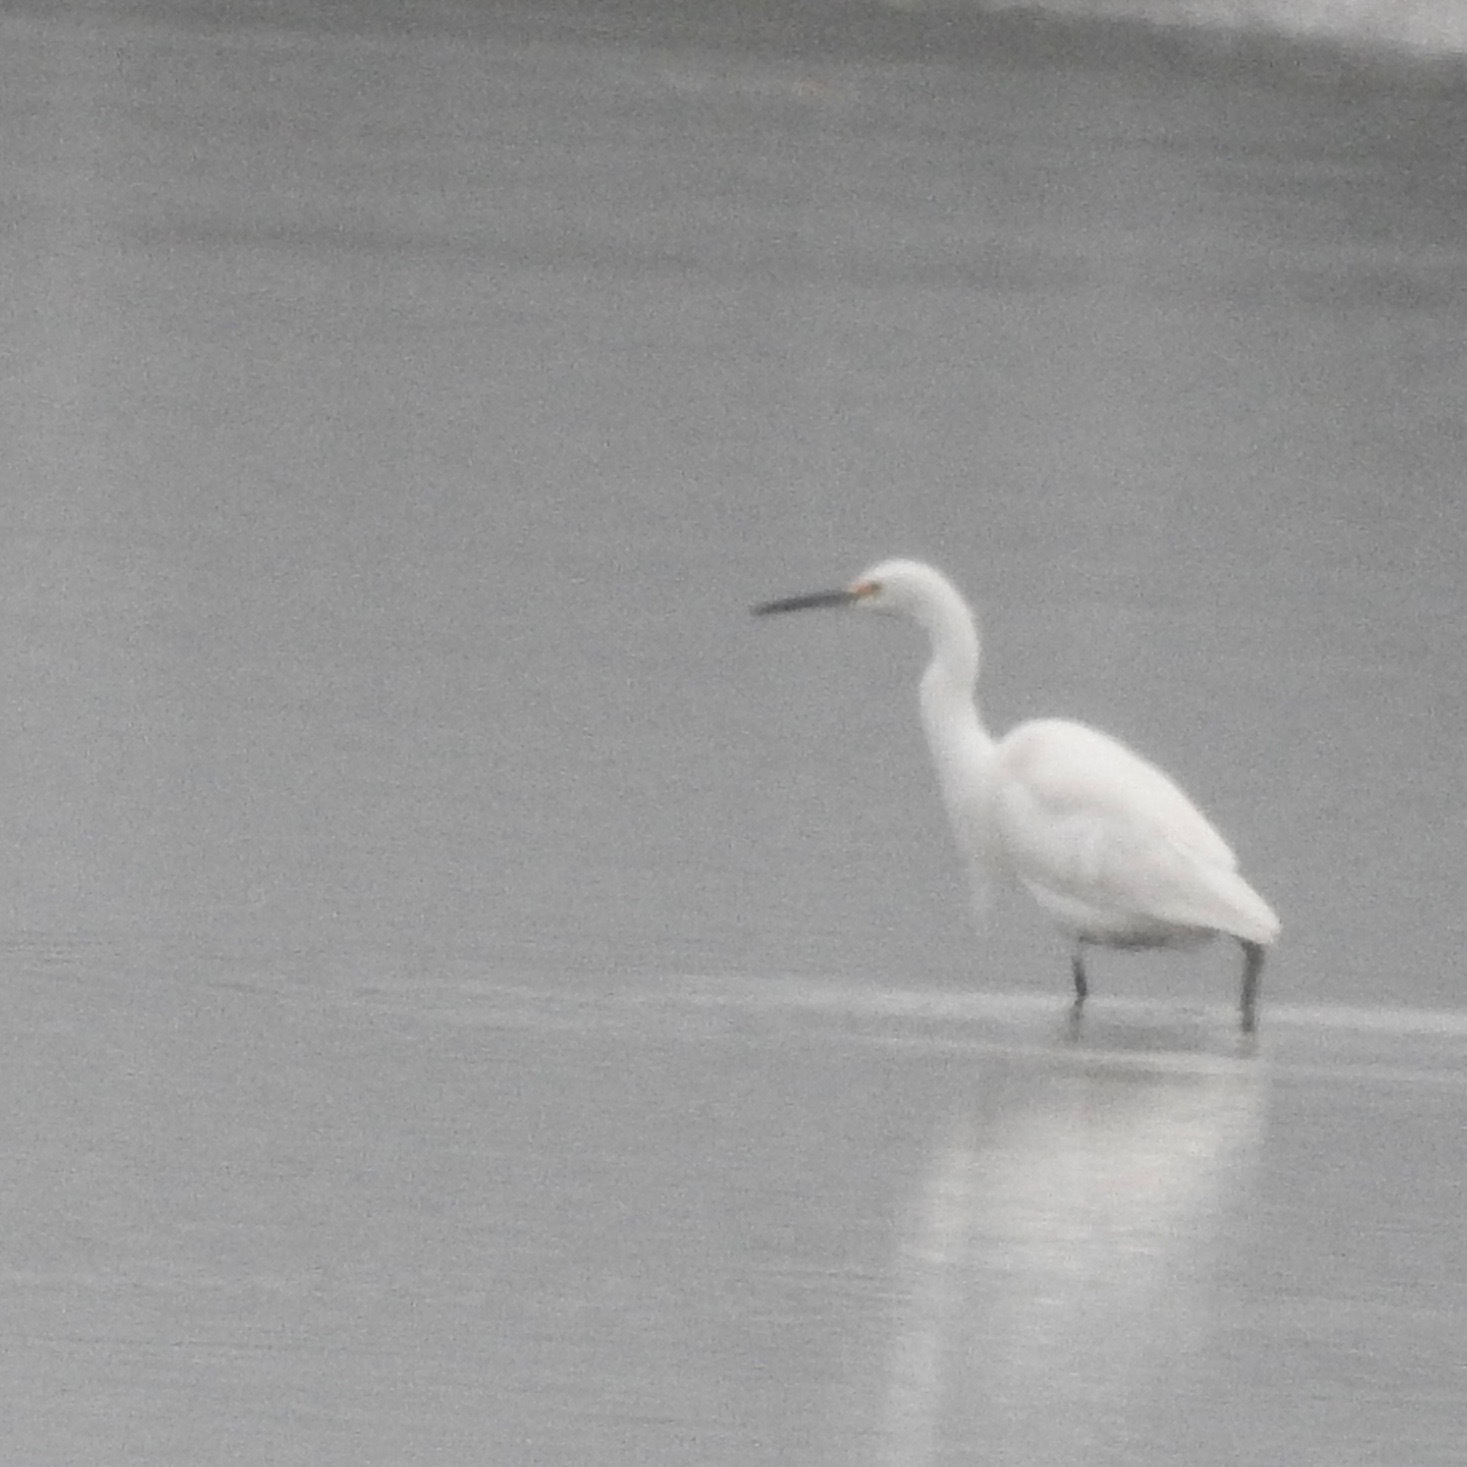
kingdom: Animalia
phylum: Chordata
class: Aves
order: Pelecaniformes
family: Ardeidae
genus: Egretta
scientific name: Egretta thula
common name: Snowy egret
